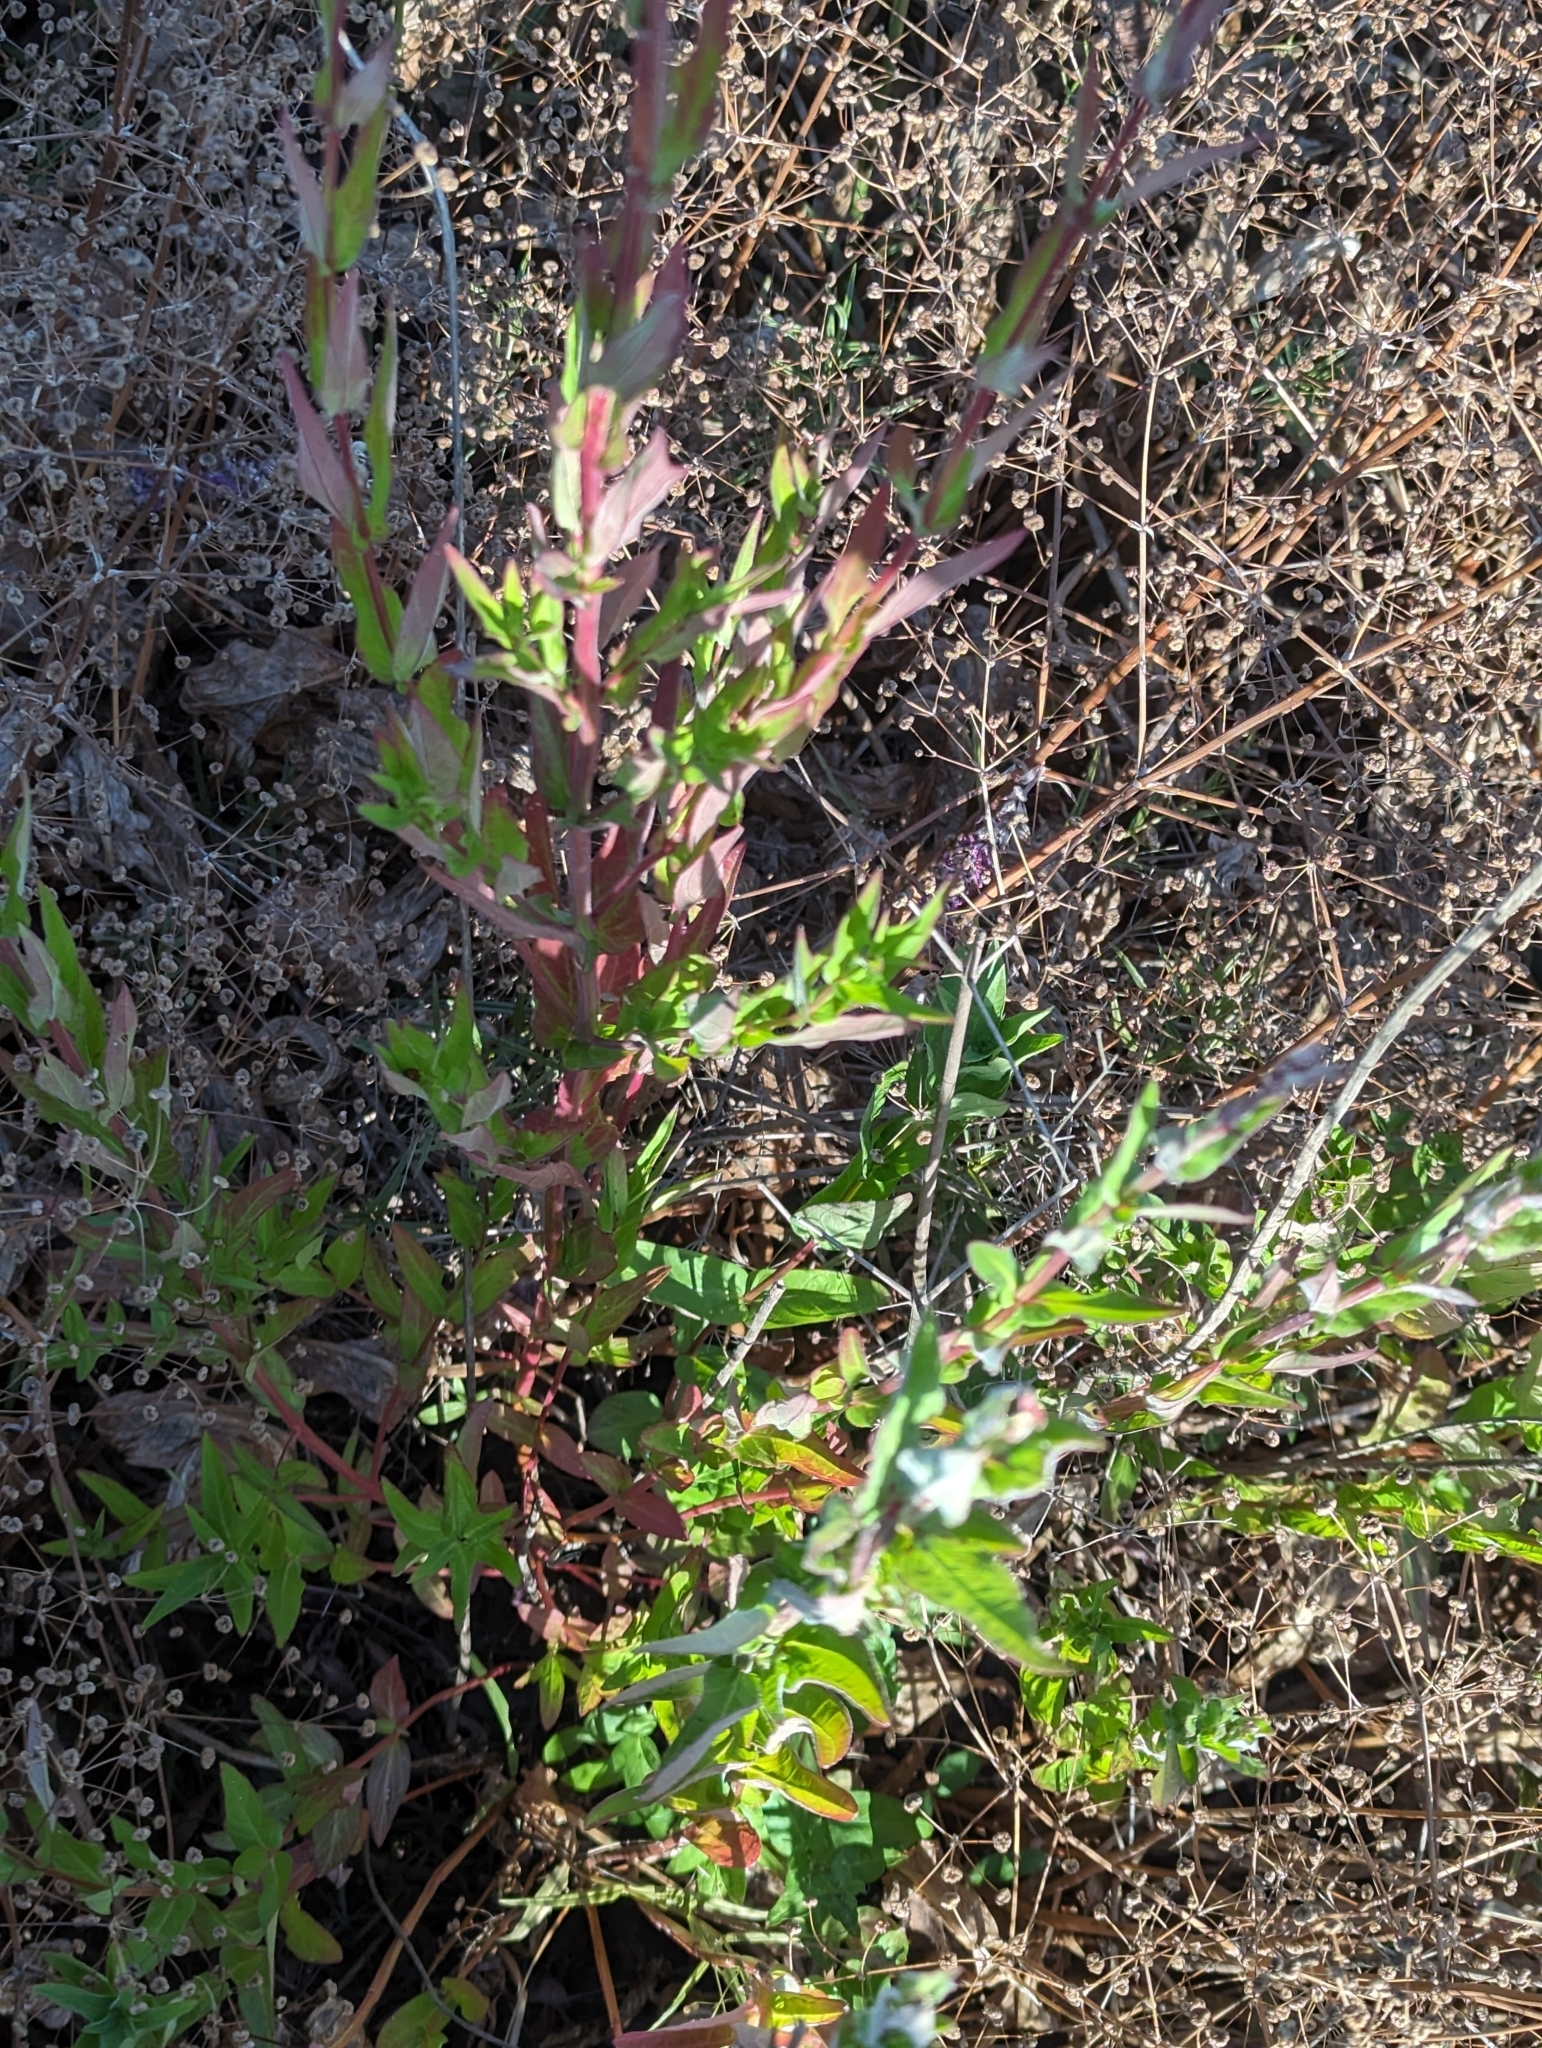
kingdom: Plantae
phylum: Tracheophyta
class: Magnoliopsida
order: Myrtales
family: Lythraceae
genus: Lythrum
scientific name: Lythrum salicaria
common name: Purple loosestrife
